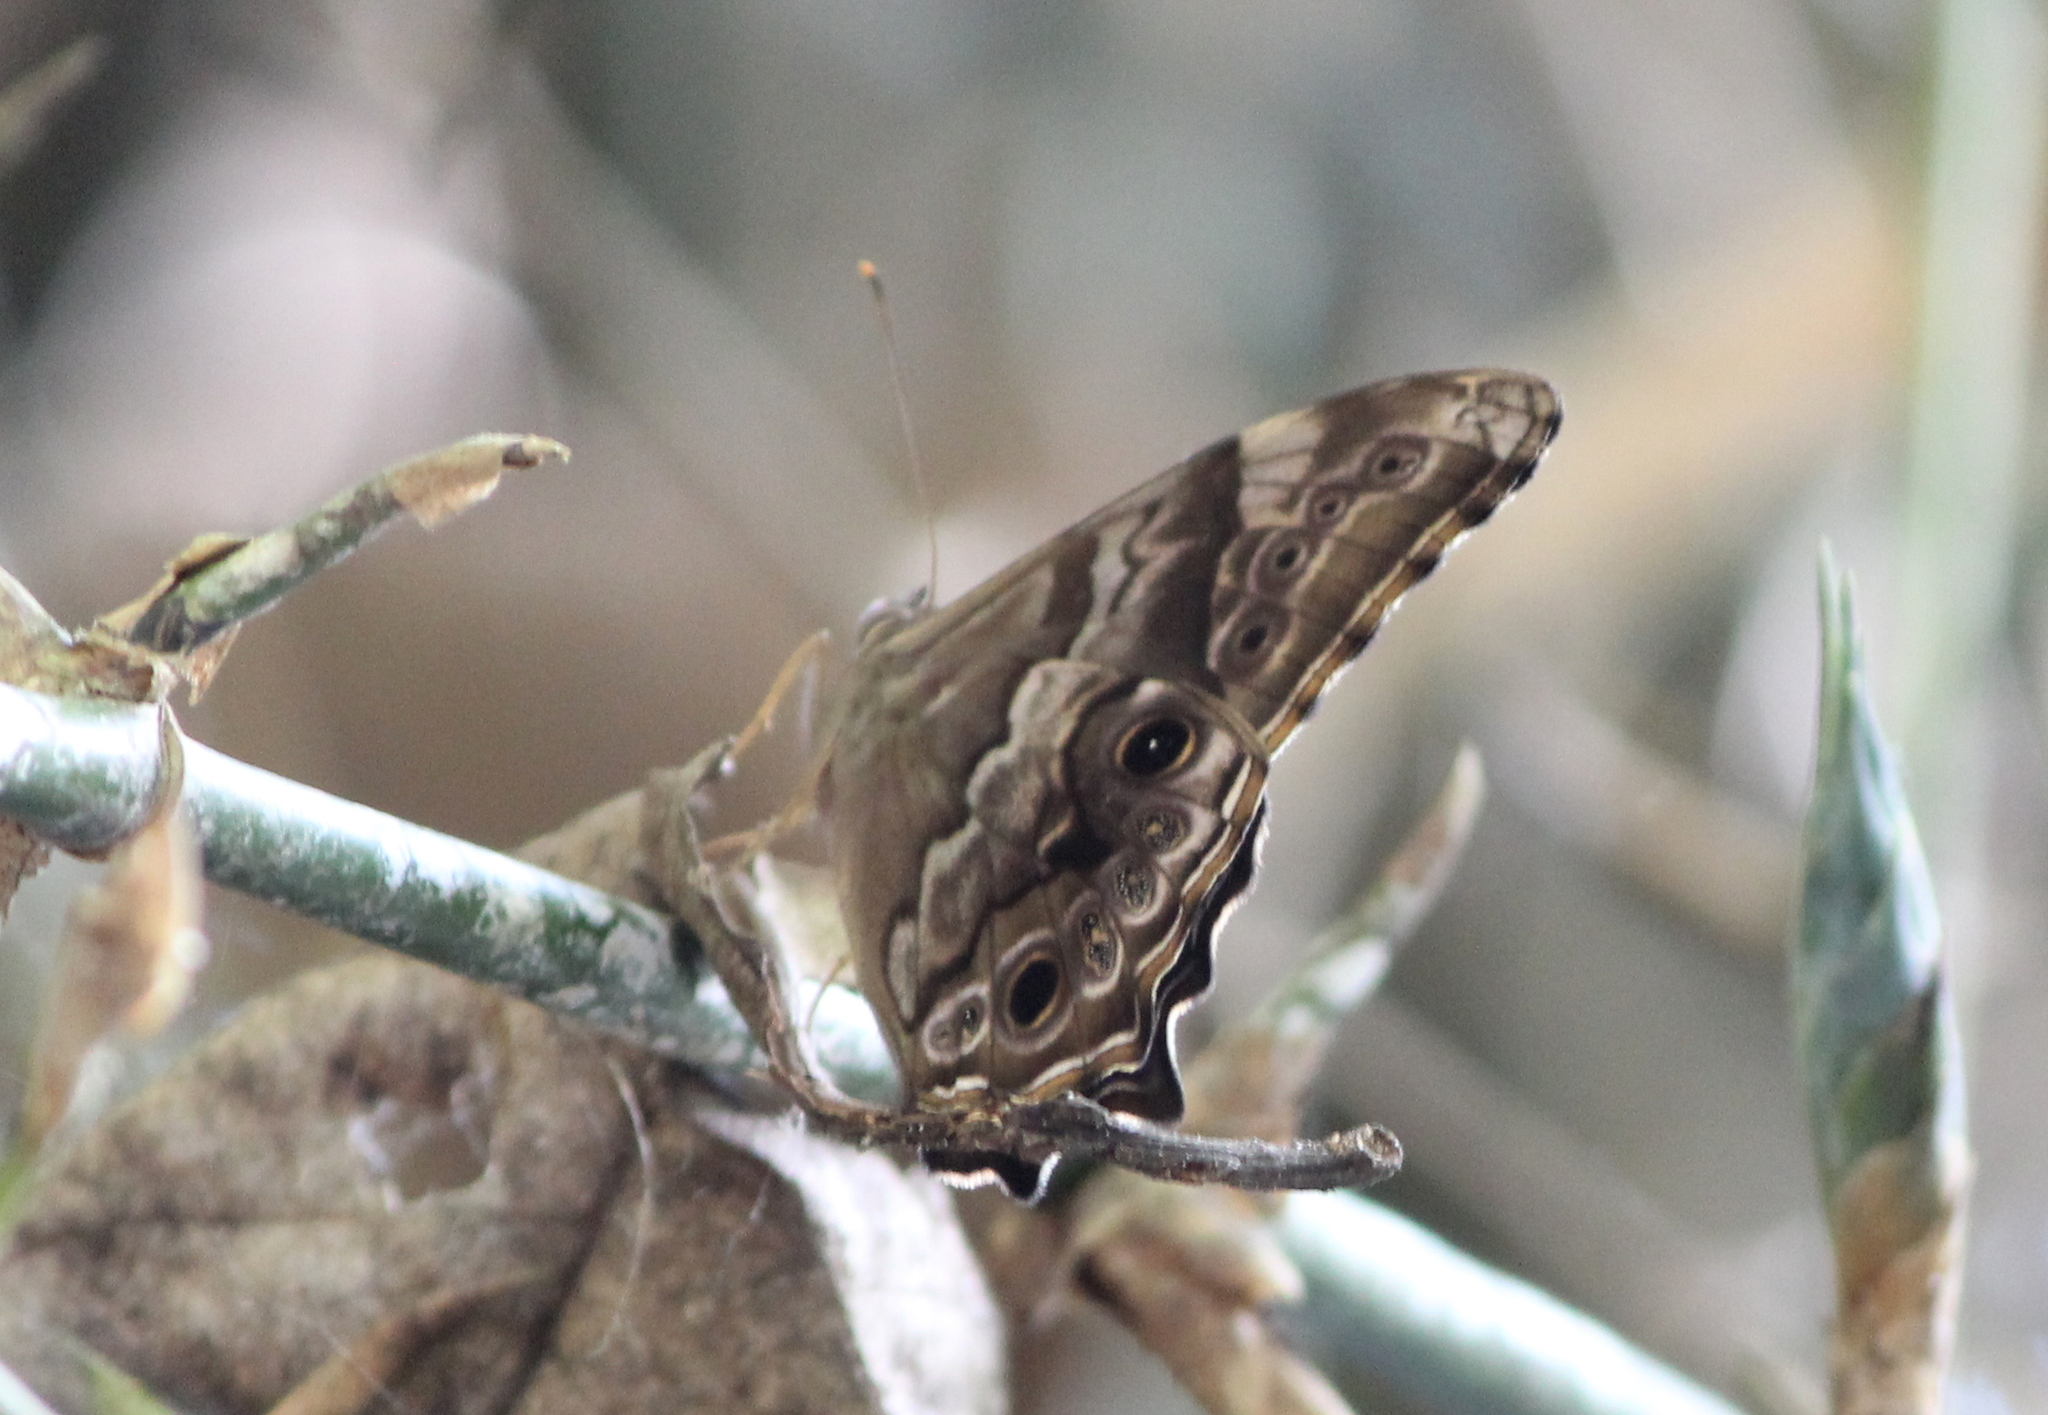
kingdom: Animalia
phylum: Arthropoda
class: Insecta
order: Lepidoptera
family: Nymphalidae
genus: Lethe
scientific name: Lethe drypetis
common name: Tamil treebrown
